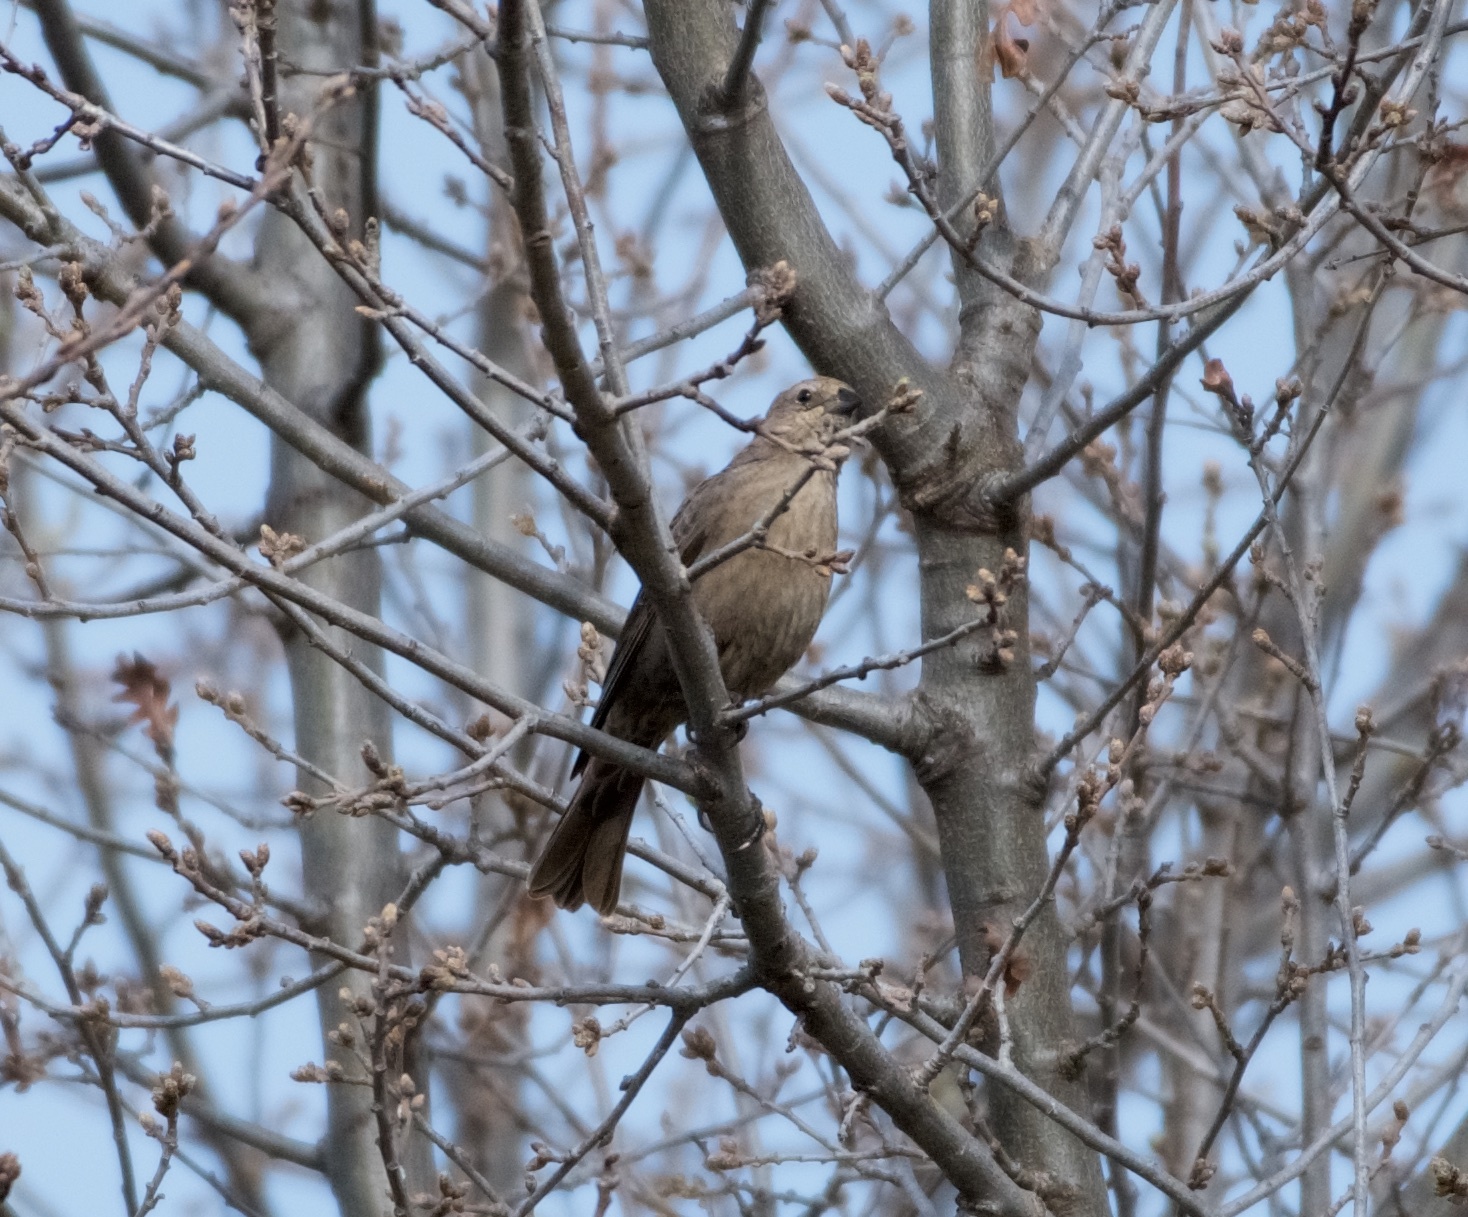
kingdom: Animalia
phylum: Chordata
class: Aves
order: Passeriformes
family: Icteridae
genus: Molothrus
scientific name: Molothrus ater
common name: Brown-headed cowbird
